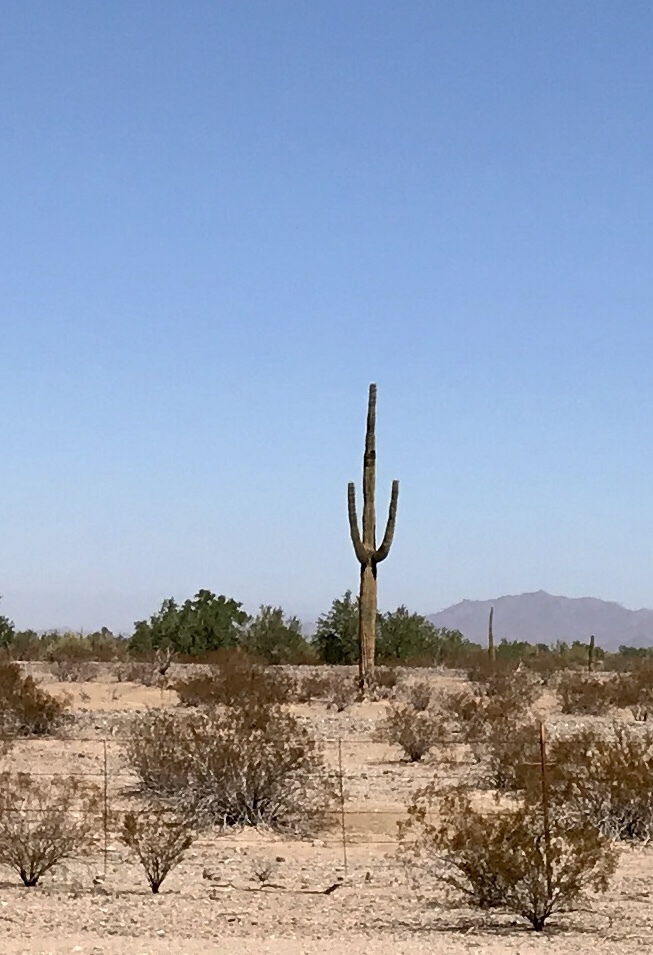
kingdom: Plantae
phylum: Tracheophyta
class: Magnoliopsida
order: Caryophyllales
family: Cactaceae
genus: Carnegiea
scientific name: Carnegiea gigantea
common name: Saguaro
